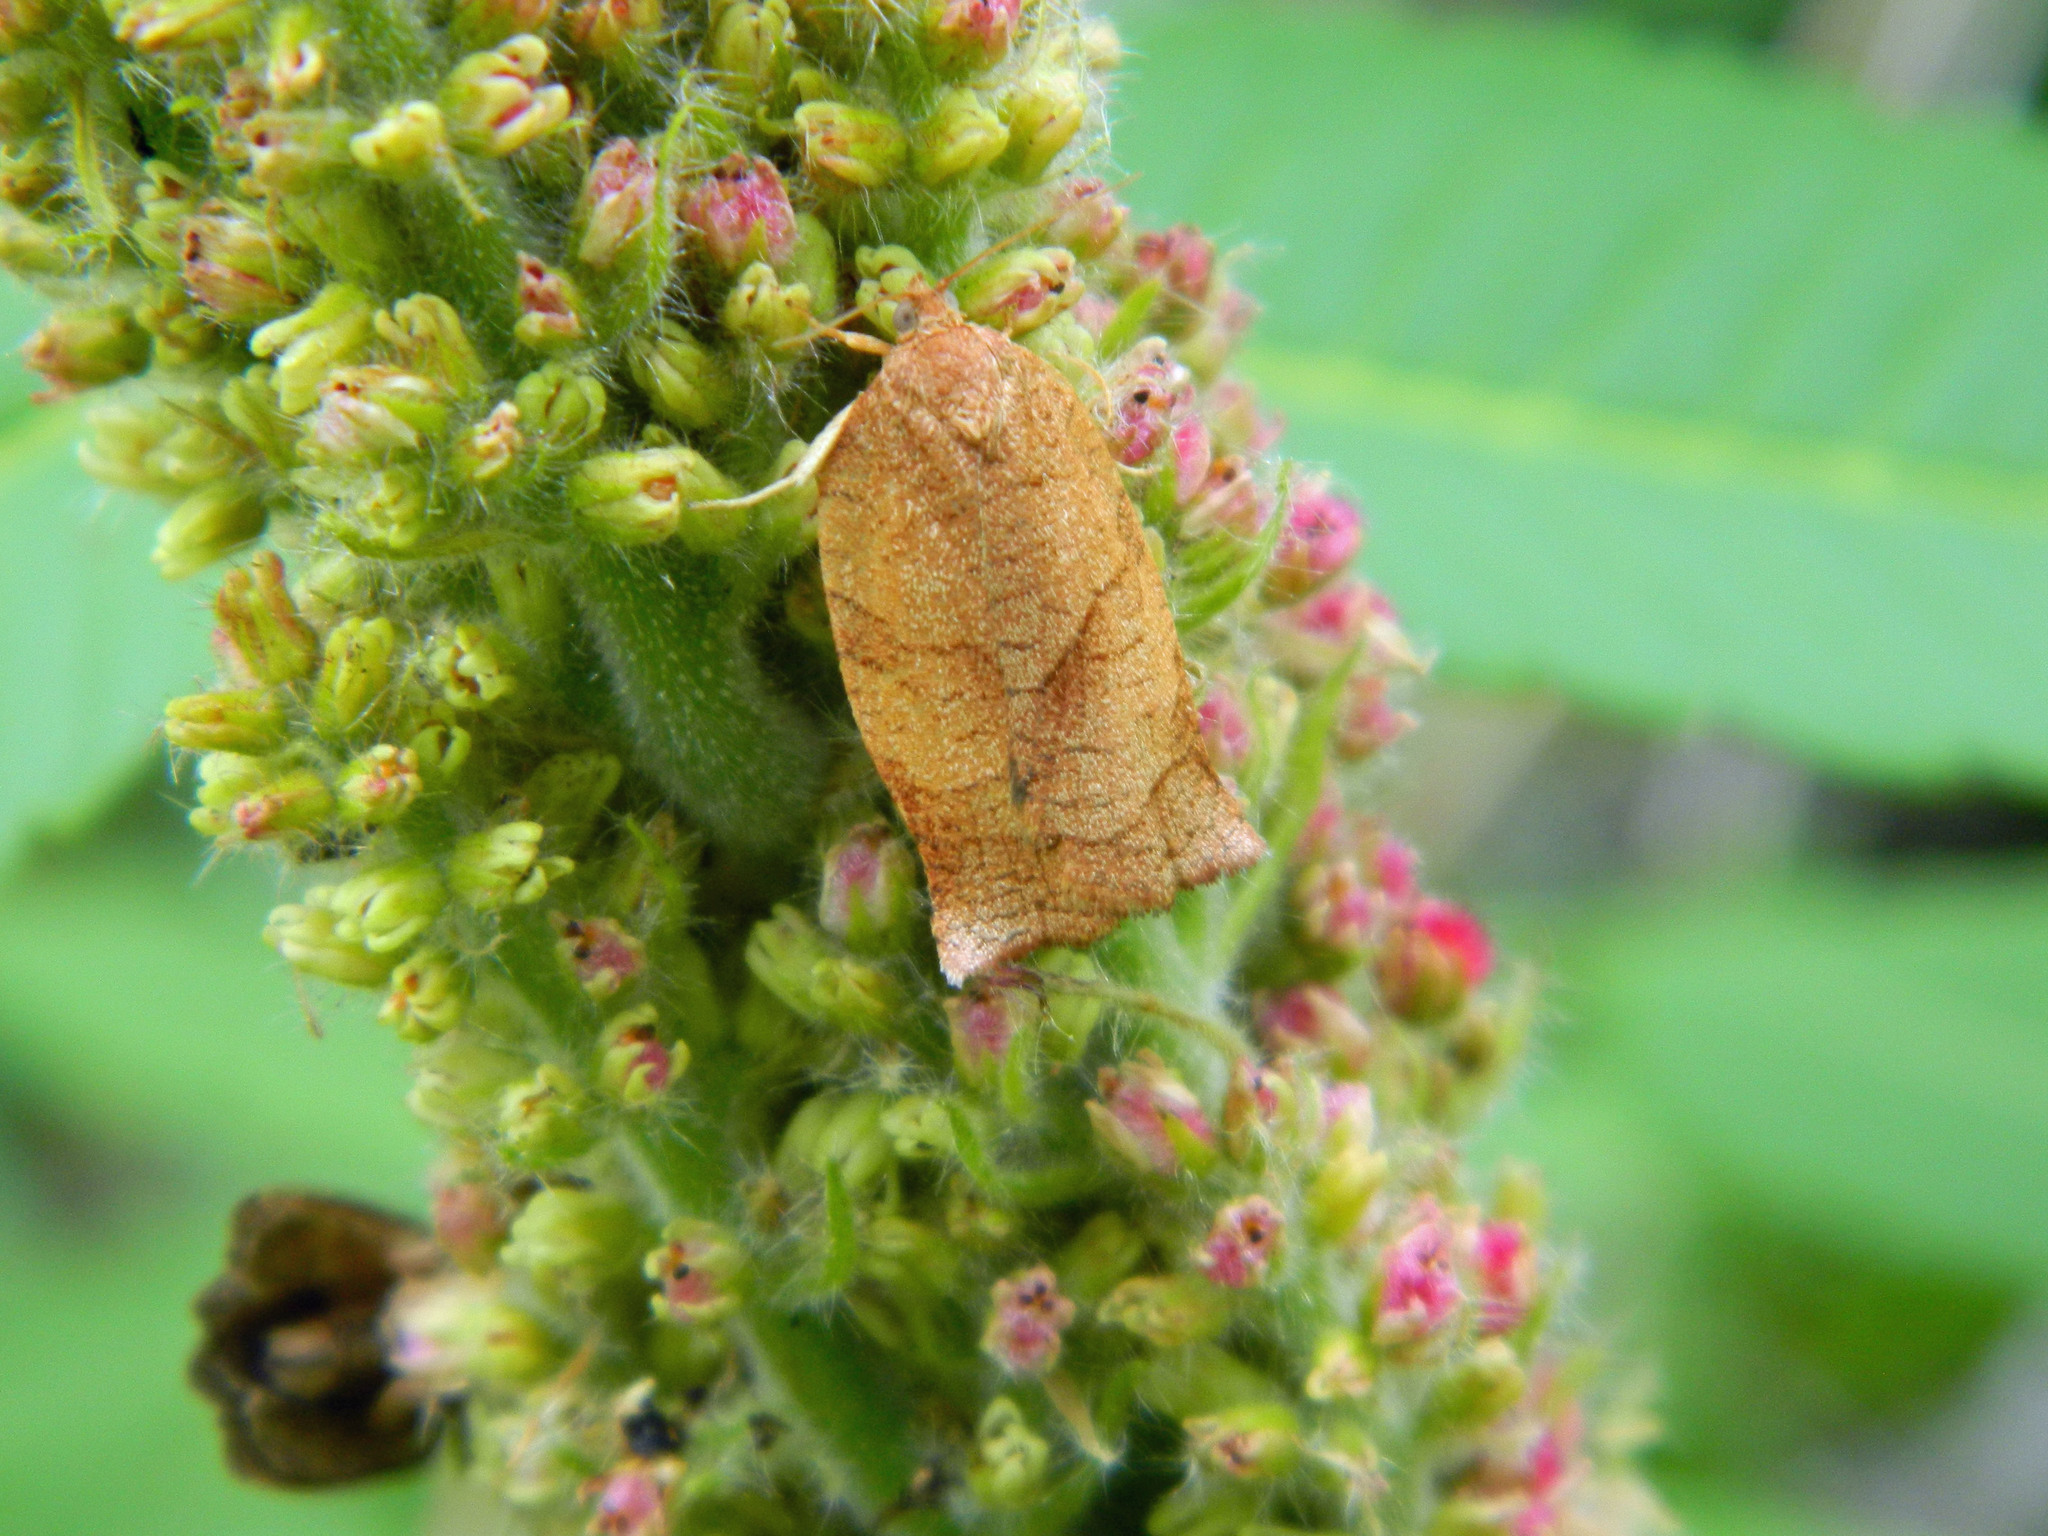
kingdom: Animalia
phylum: Arthropoda
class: Insecta
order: Lepidoptera
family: Tortricidae
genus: Choristoneura
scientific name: Choristoneura rosaceana
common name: Oblique-banded leafroller moth
